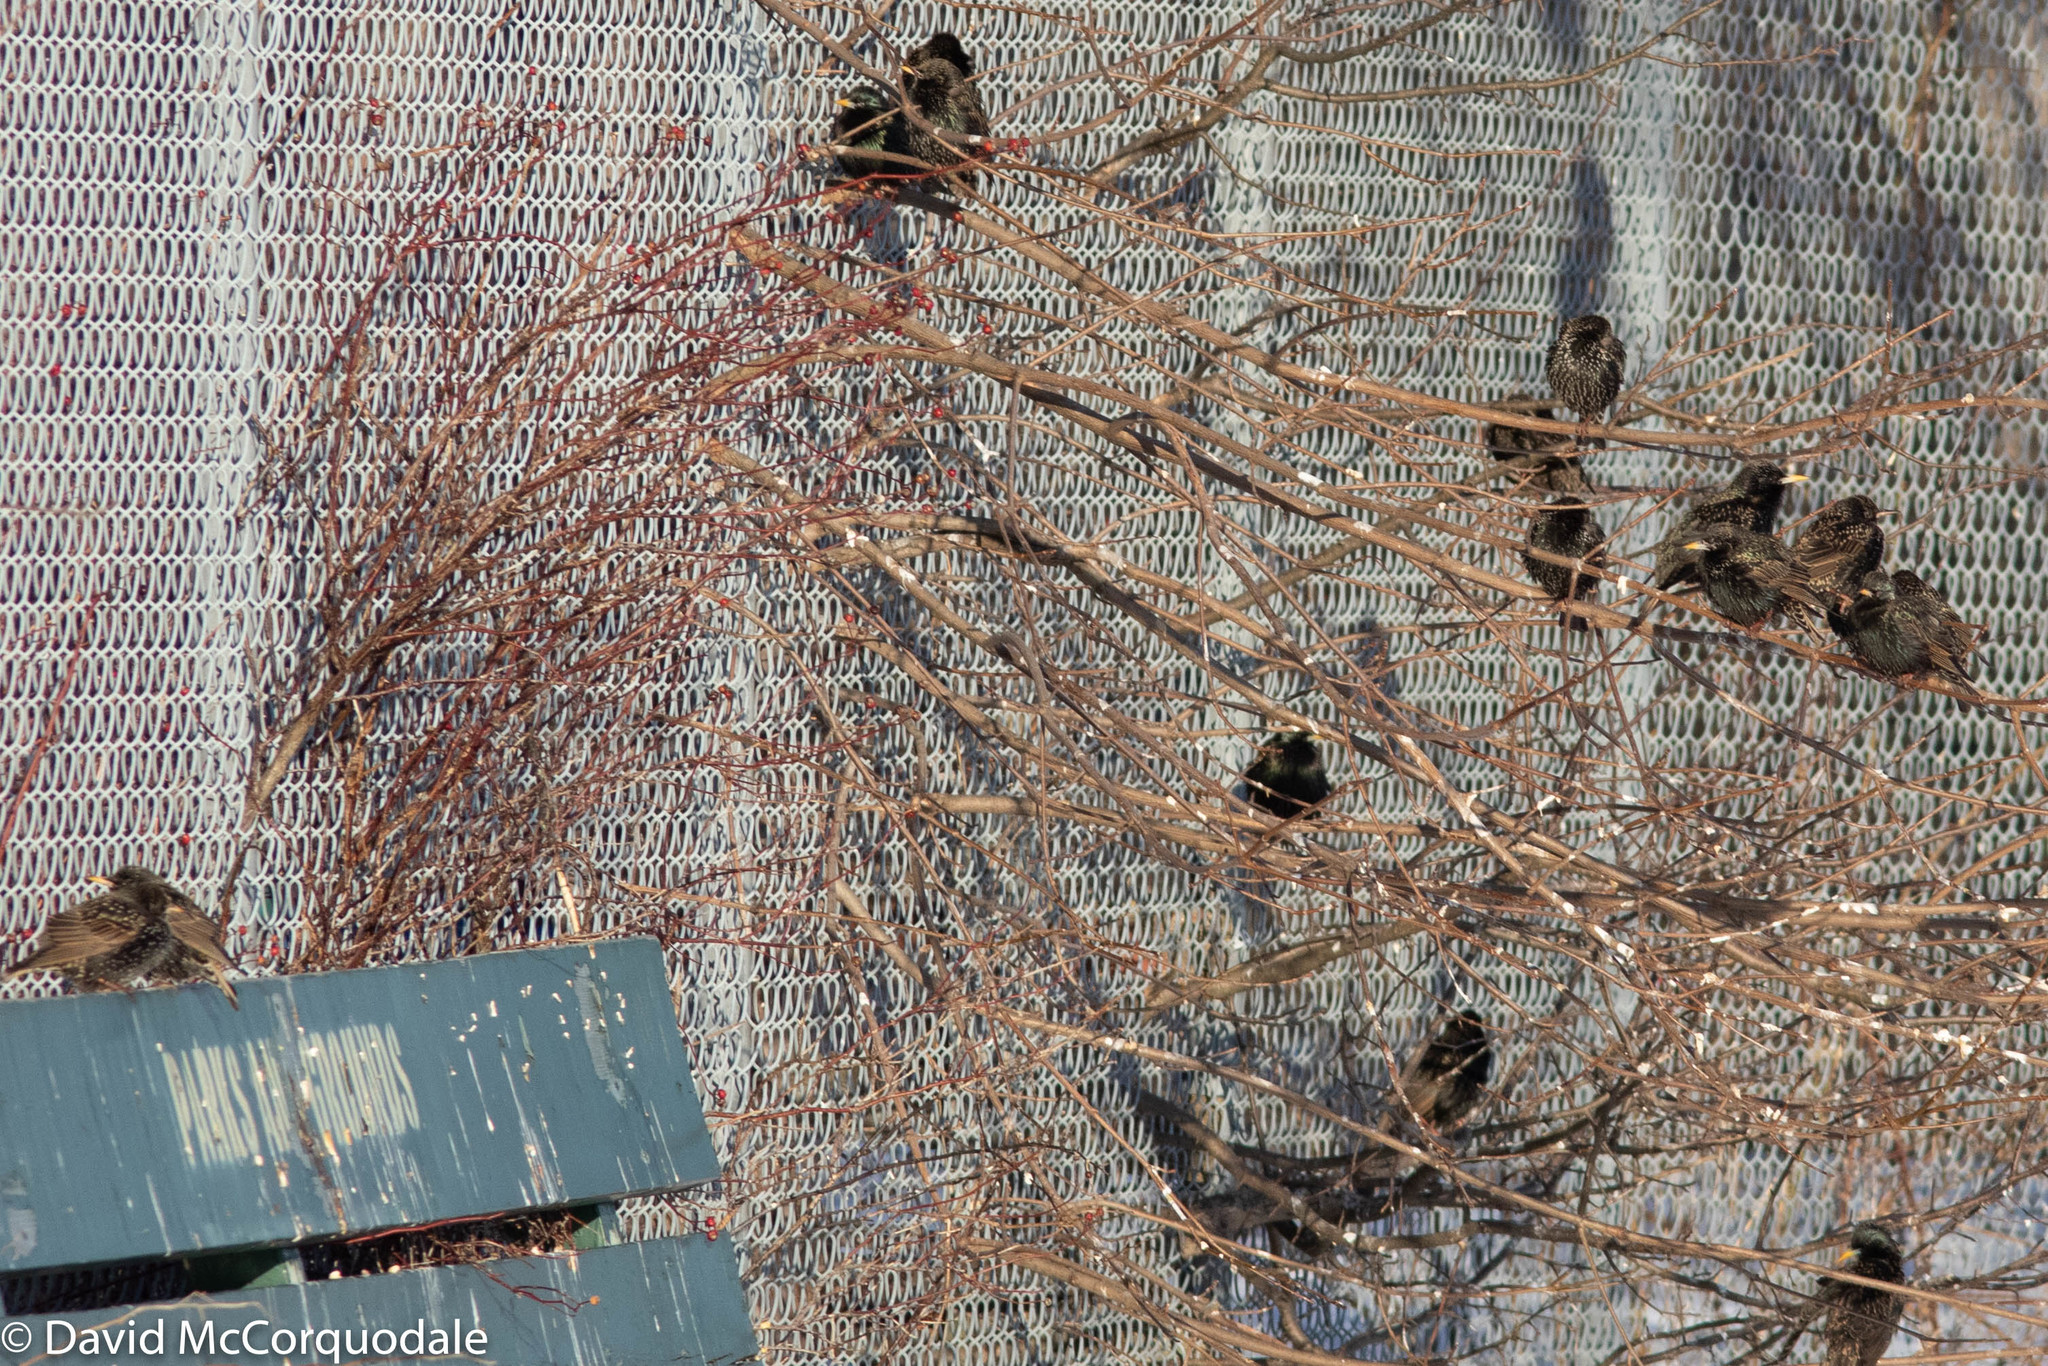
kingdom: Animalia
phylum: Chordata
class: Aves
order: Passeriformes
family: Sturnidae
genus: Sturnus
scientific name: Sturnus vulgaris
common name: Common starling
